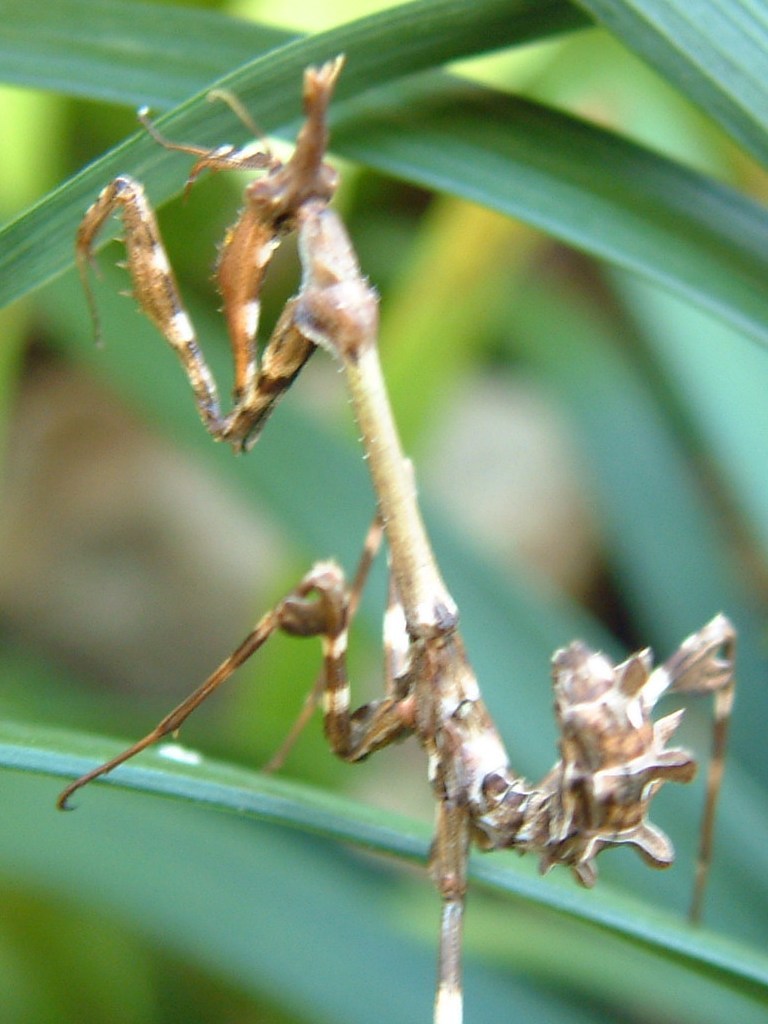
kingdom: Animalia
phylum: Arthropoda
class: Insecta
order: Mantodea
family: Empusidae
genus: Empusa
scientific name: Empusa binotata
